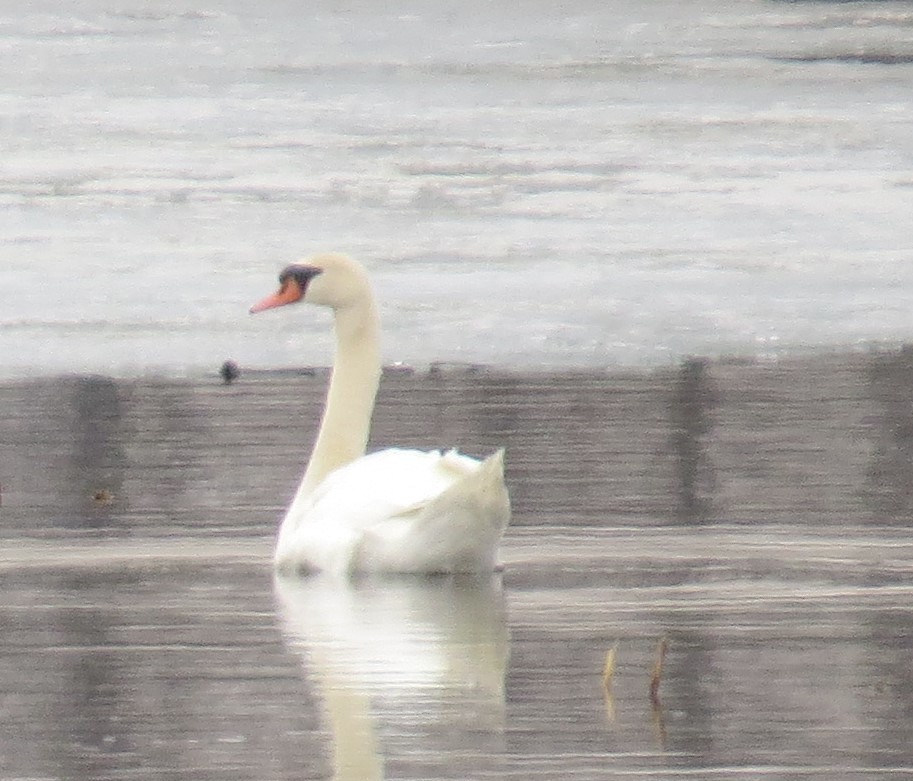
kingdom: Animalia
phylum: Chordata
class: Aves
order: Anseriformes
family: Anatidae
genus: Cygnus
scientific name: Cygnus olor
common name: Mute swan
